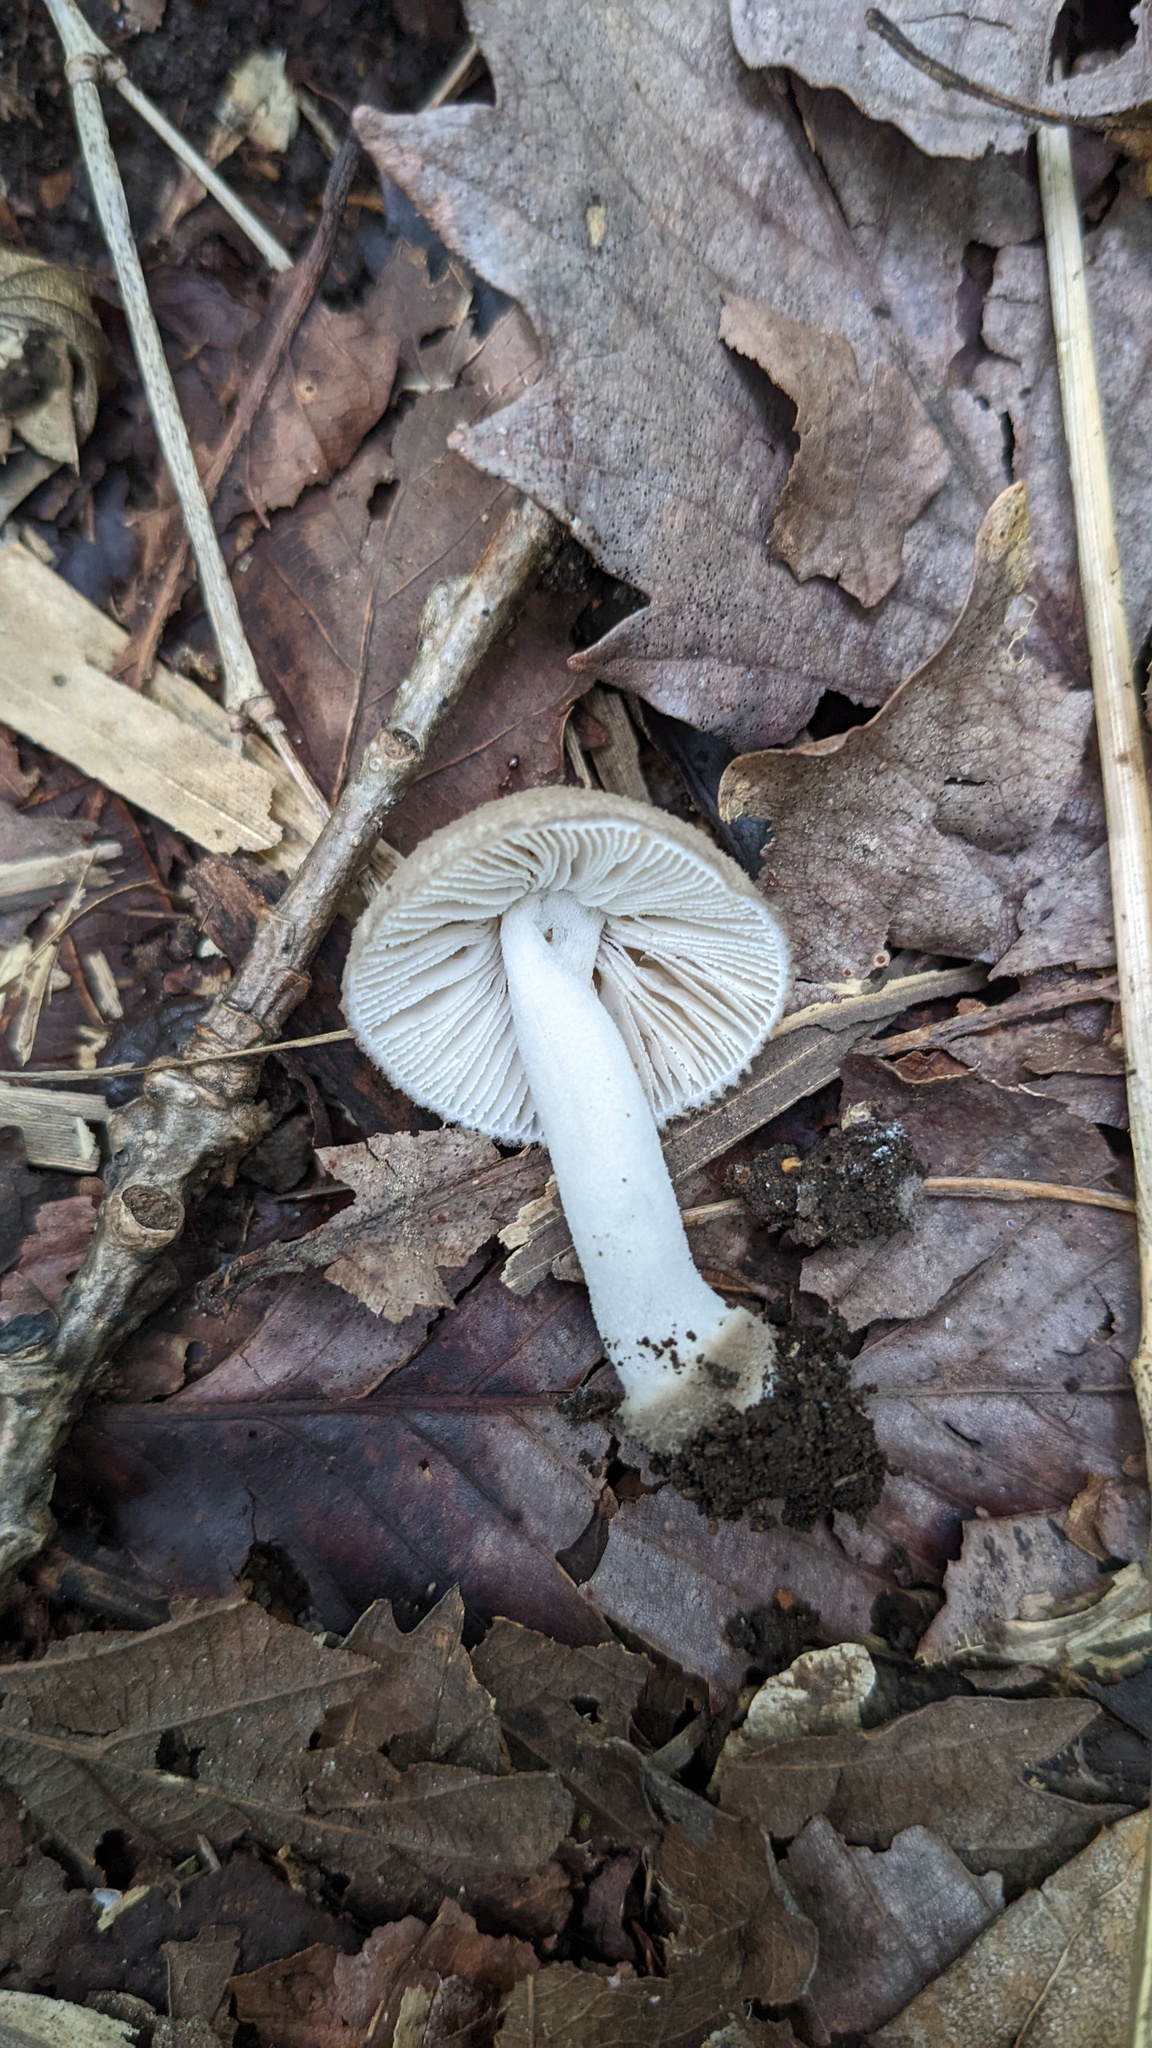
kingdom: Fungi
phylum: Basidiomycota
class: Agaricomycetes
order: Agaricales
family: Amanitaceae
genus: Amanita
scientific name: Amanita farinosa
